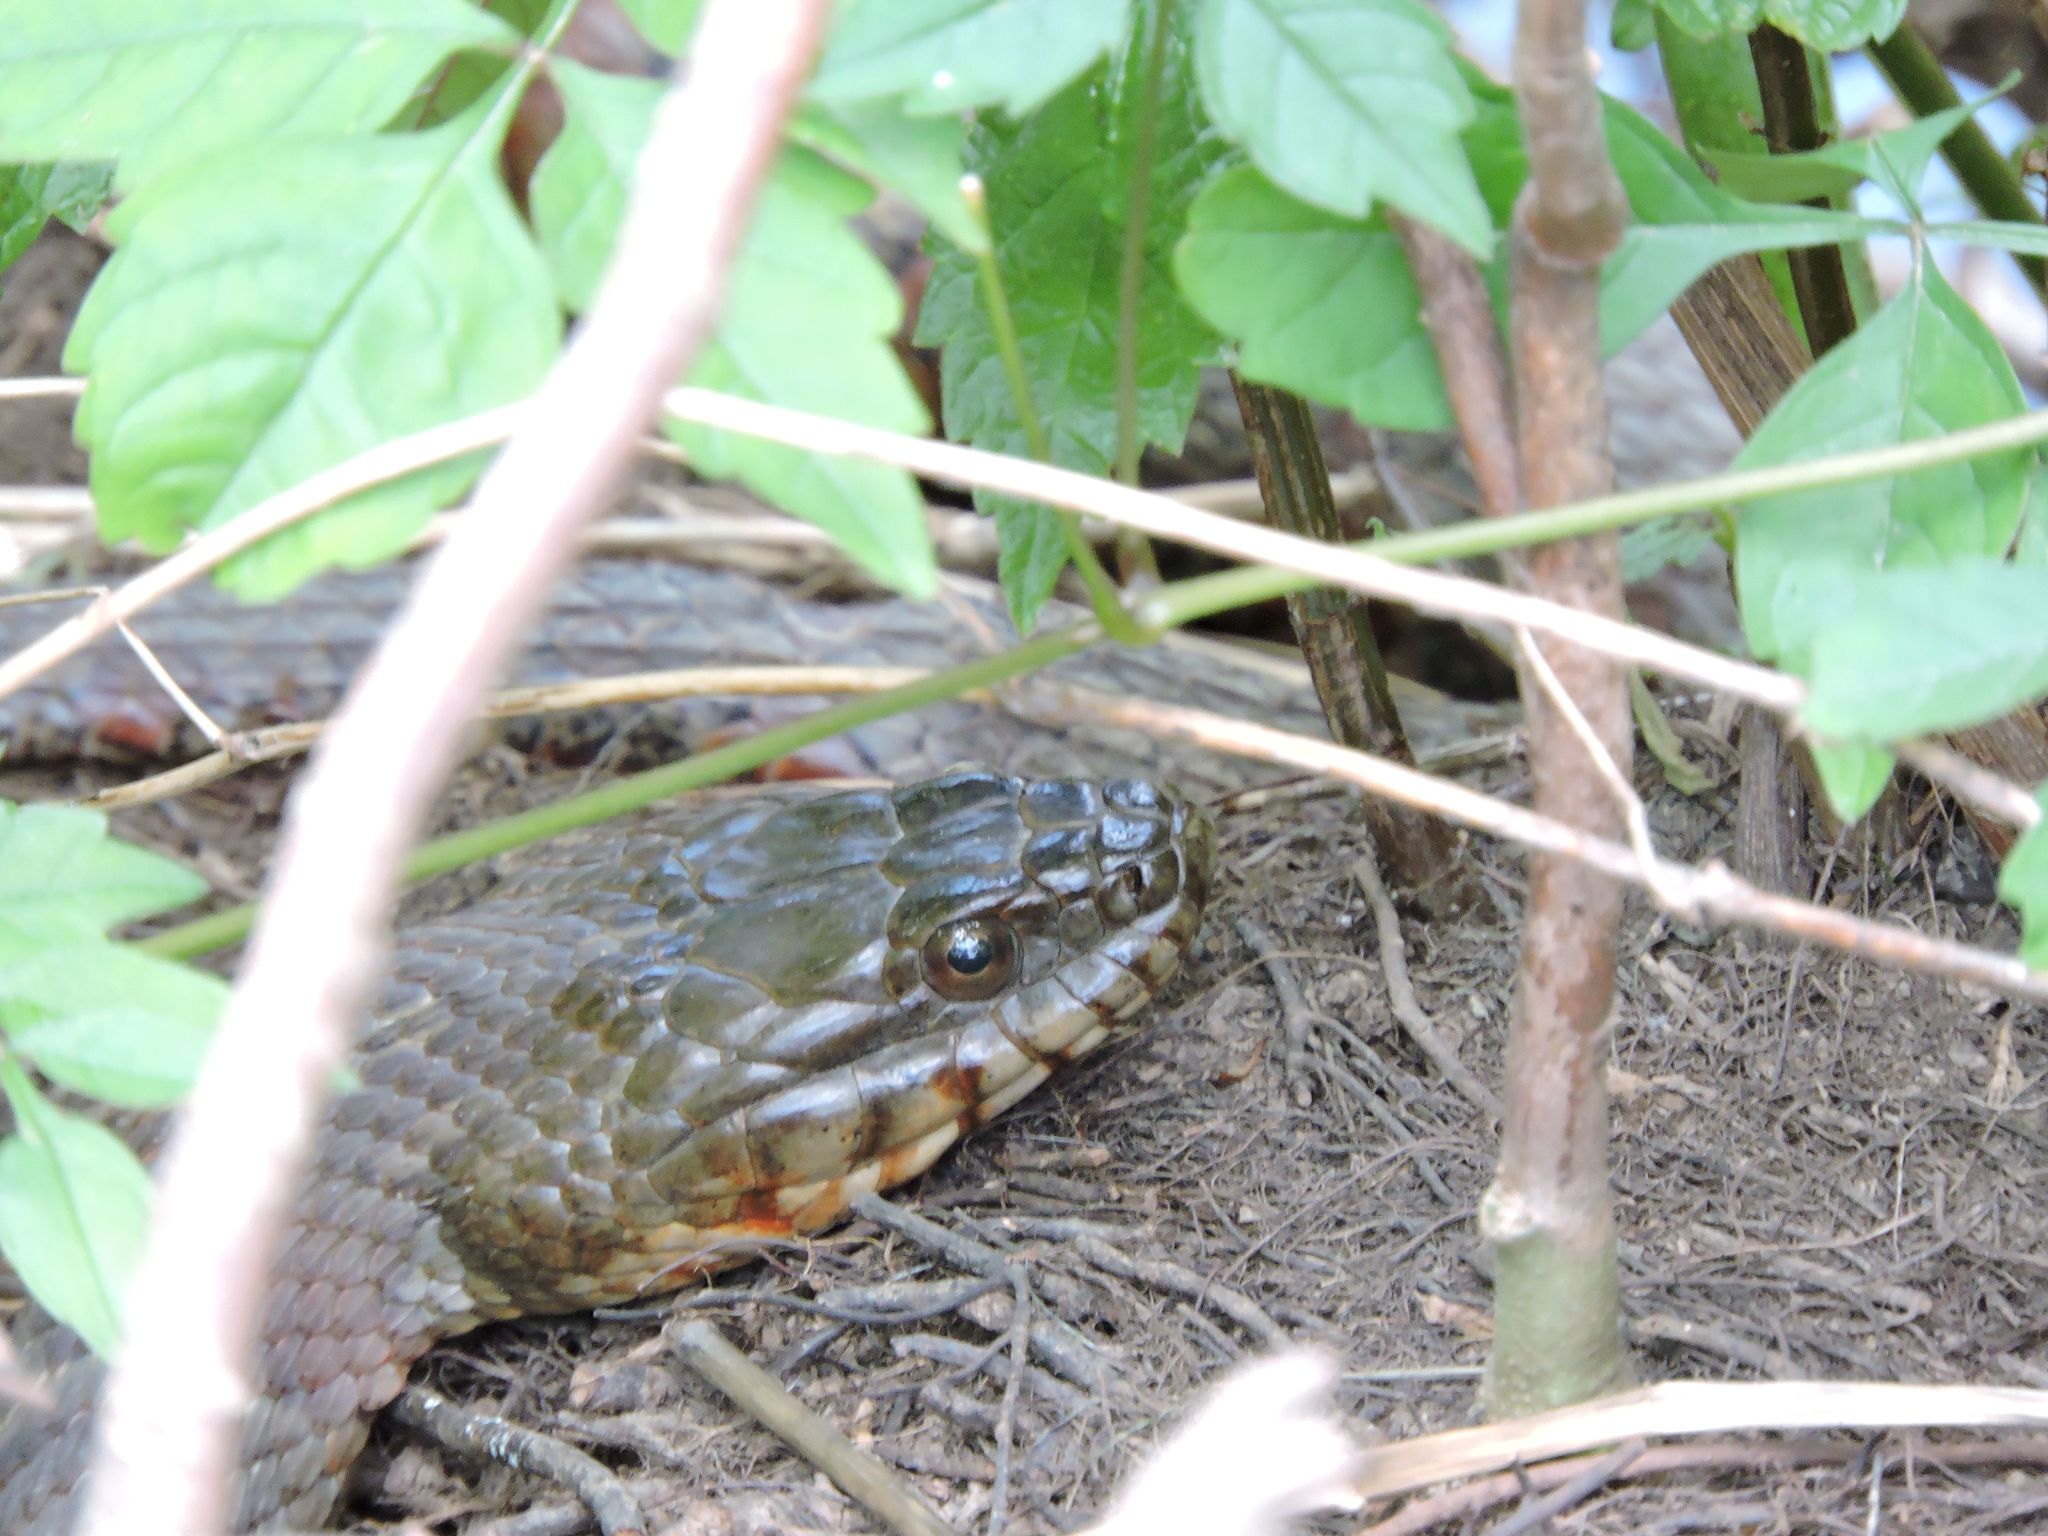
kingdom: Animalia
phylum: Chordata
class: Squamata
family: Colubridae
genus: Nerodia
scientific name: Nerodia sipedon
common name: Northern water snake
